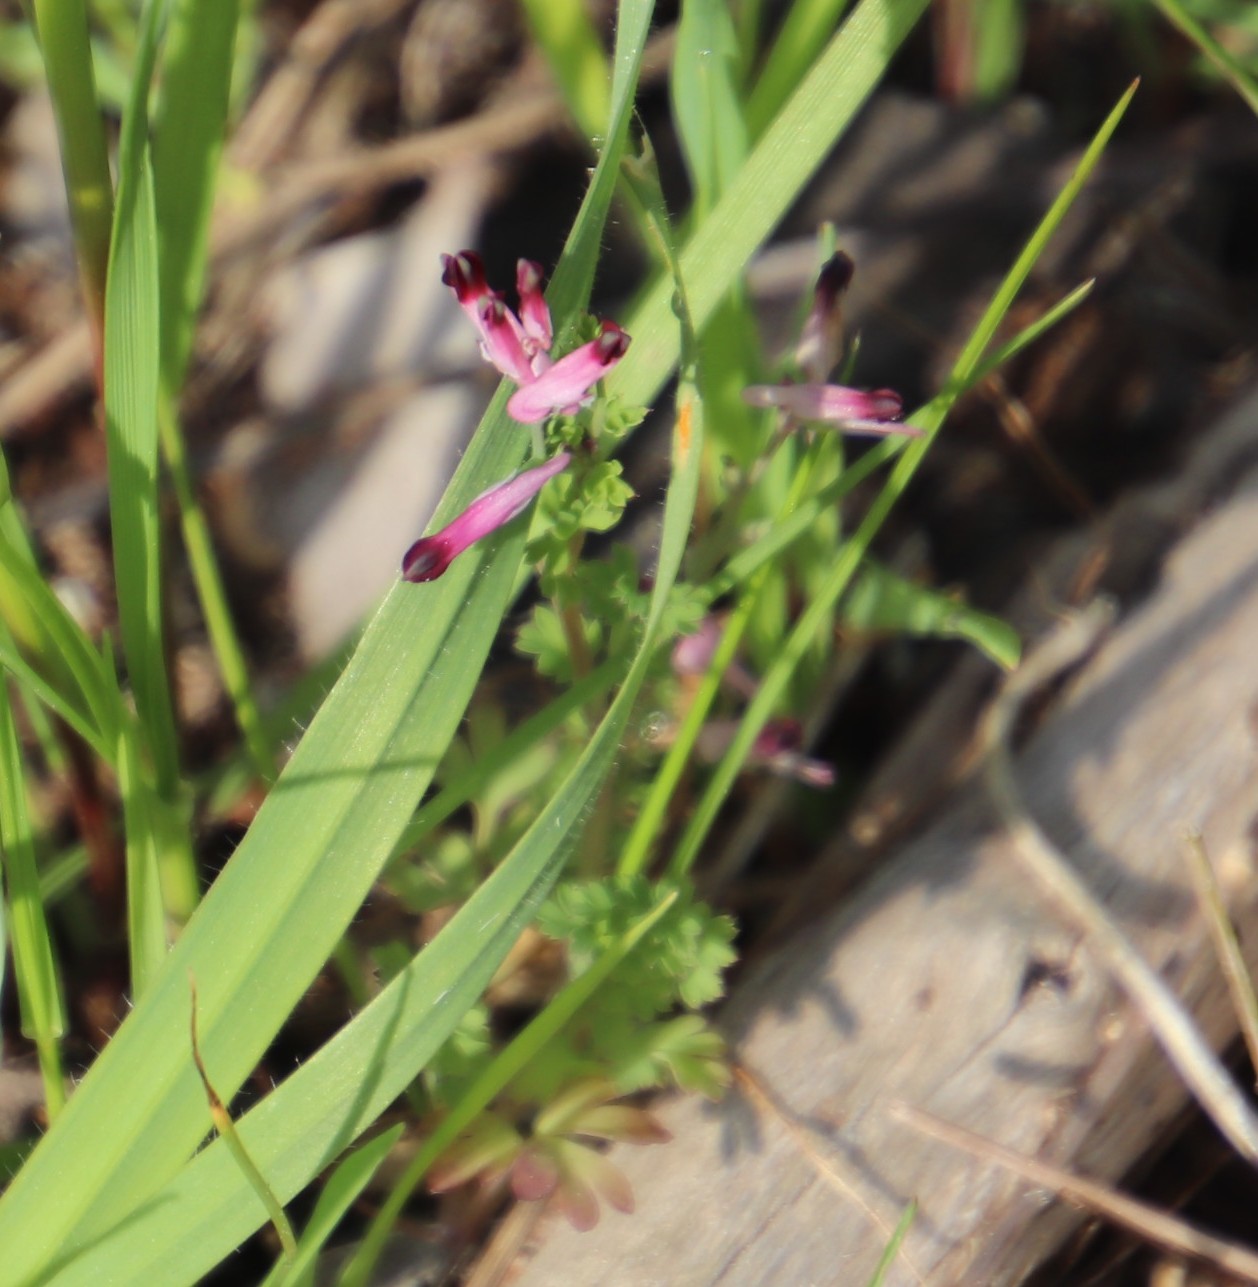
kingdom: Plantae
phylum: Tracheophyta
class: Magnoliopsida
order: Ranunculales
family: Papaveraceae
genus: Fumaria
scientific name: Fumaria muralis
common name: Common ramping-fumitory
